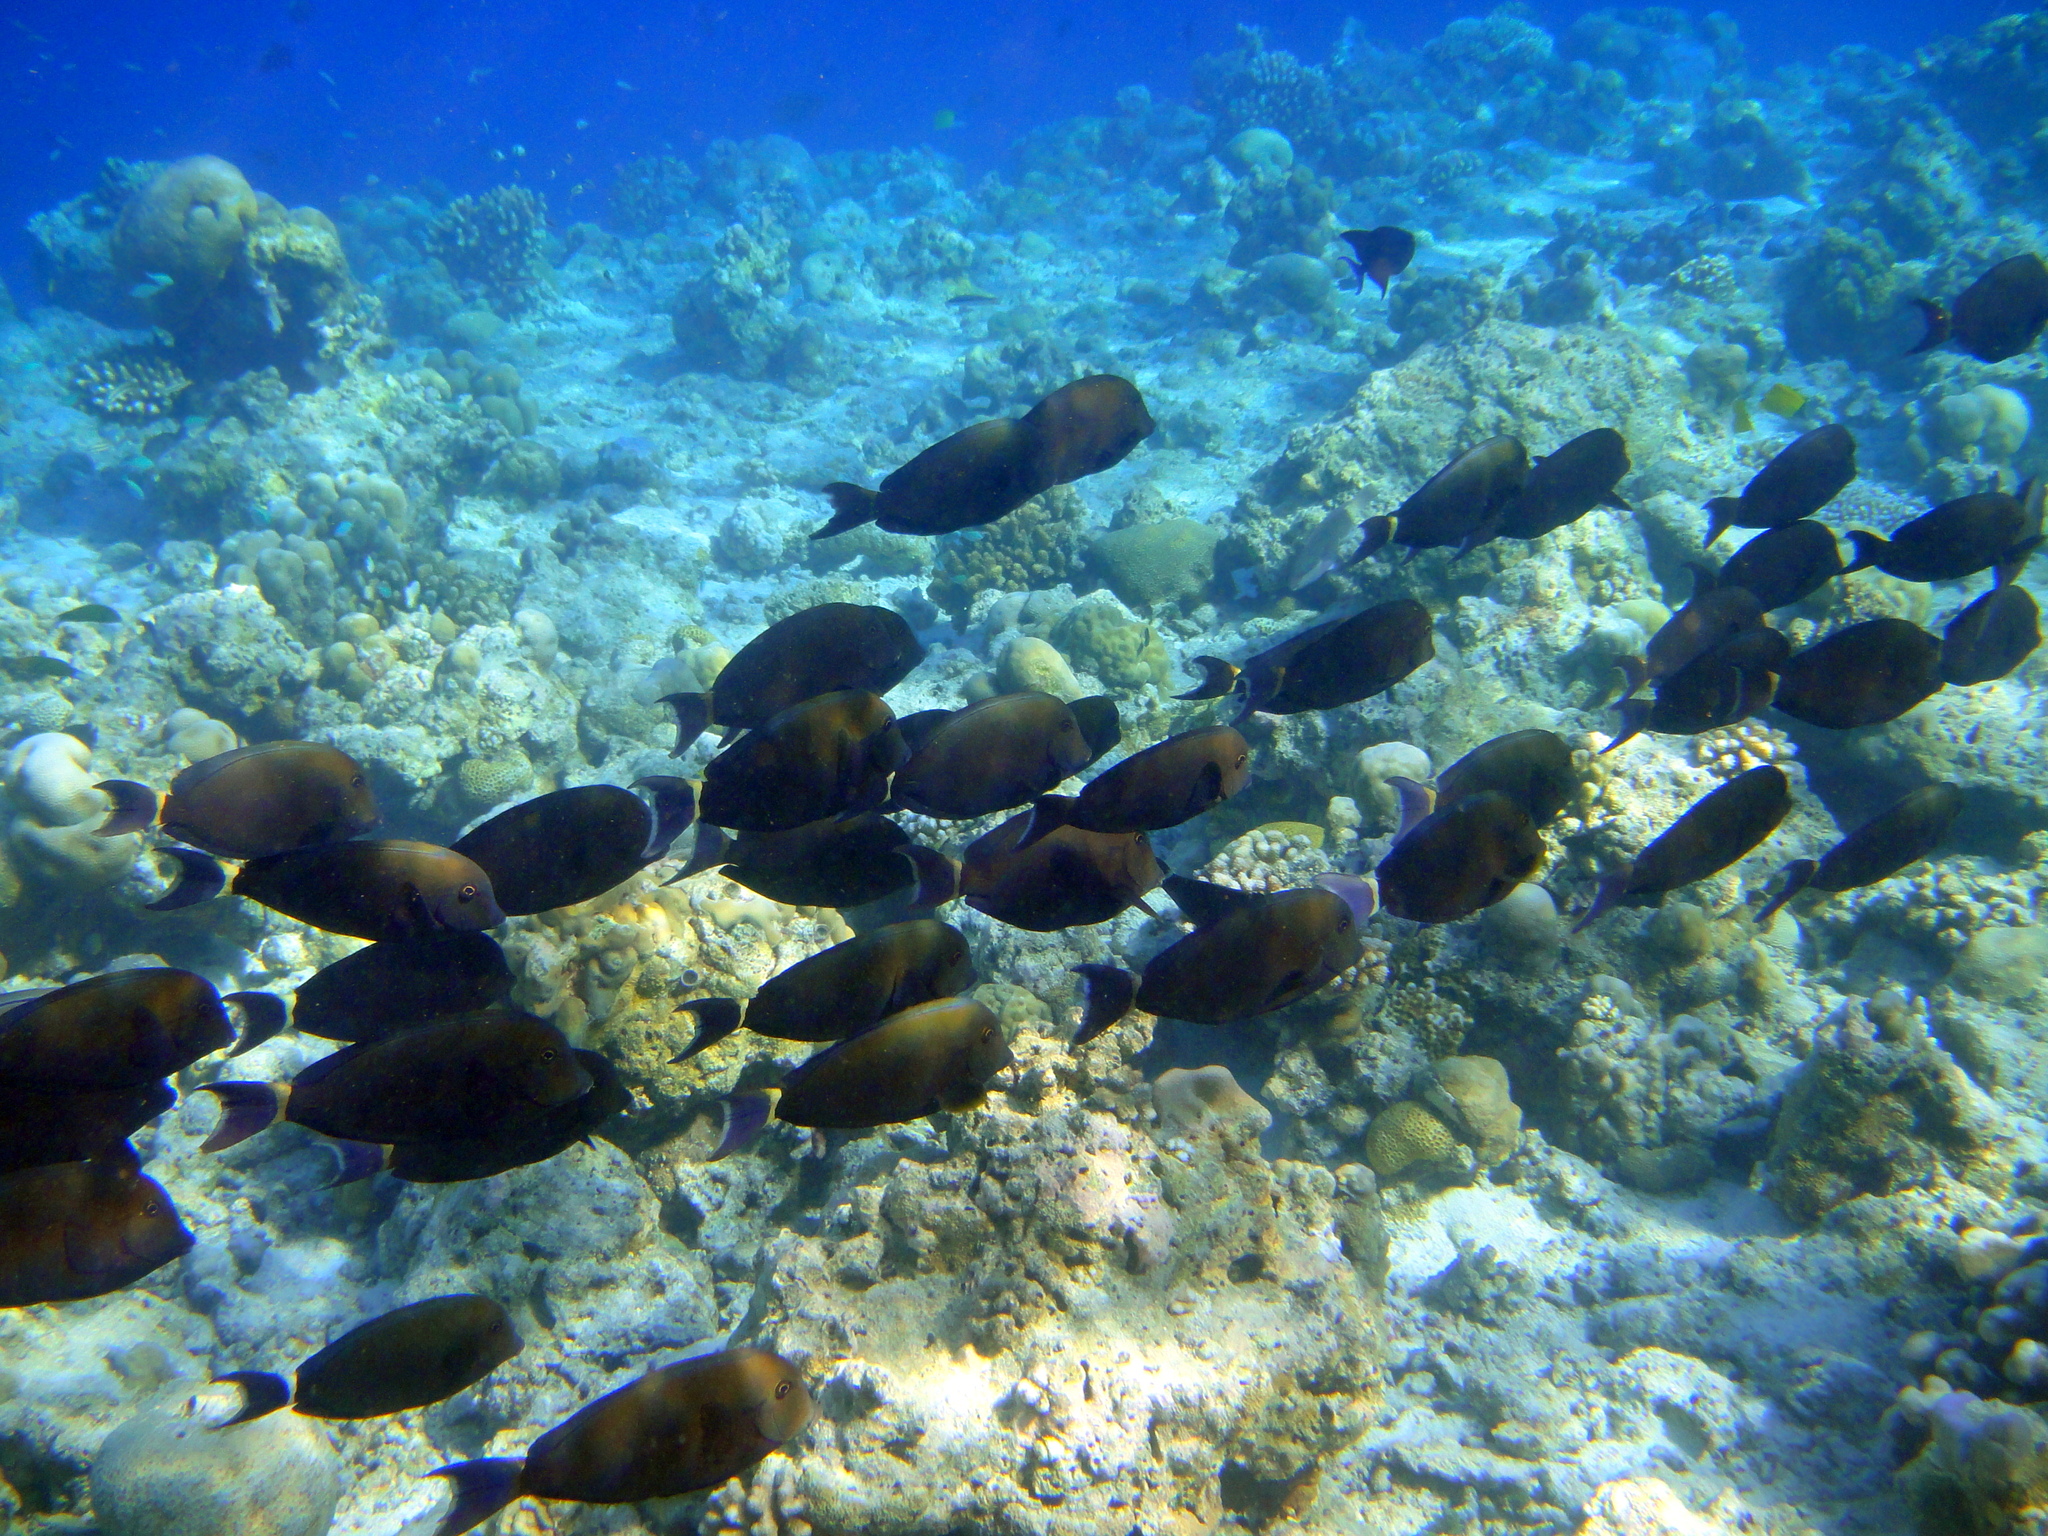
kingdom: Animalia
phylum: Chordata
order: Perciformes
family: Acanthuridae
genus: Acanthurus
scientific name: Acanthurus blochii
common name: Blue-banded pualu
